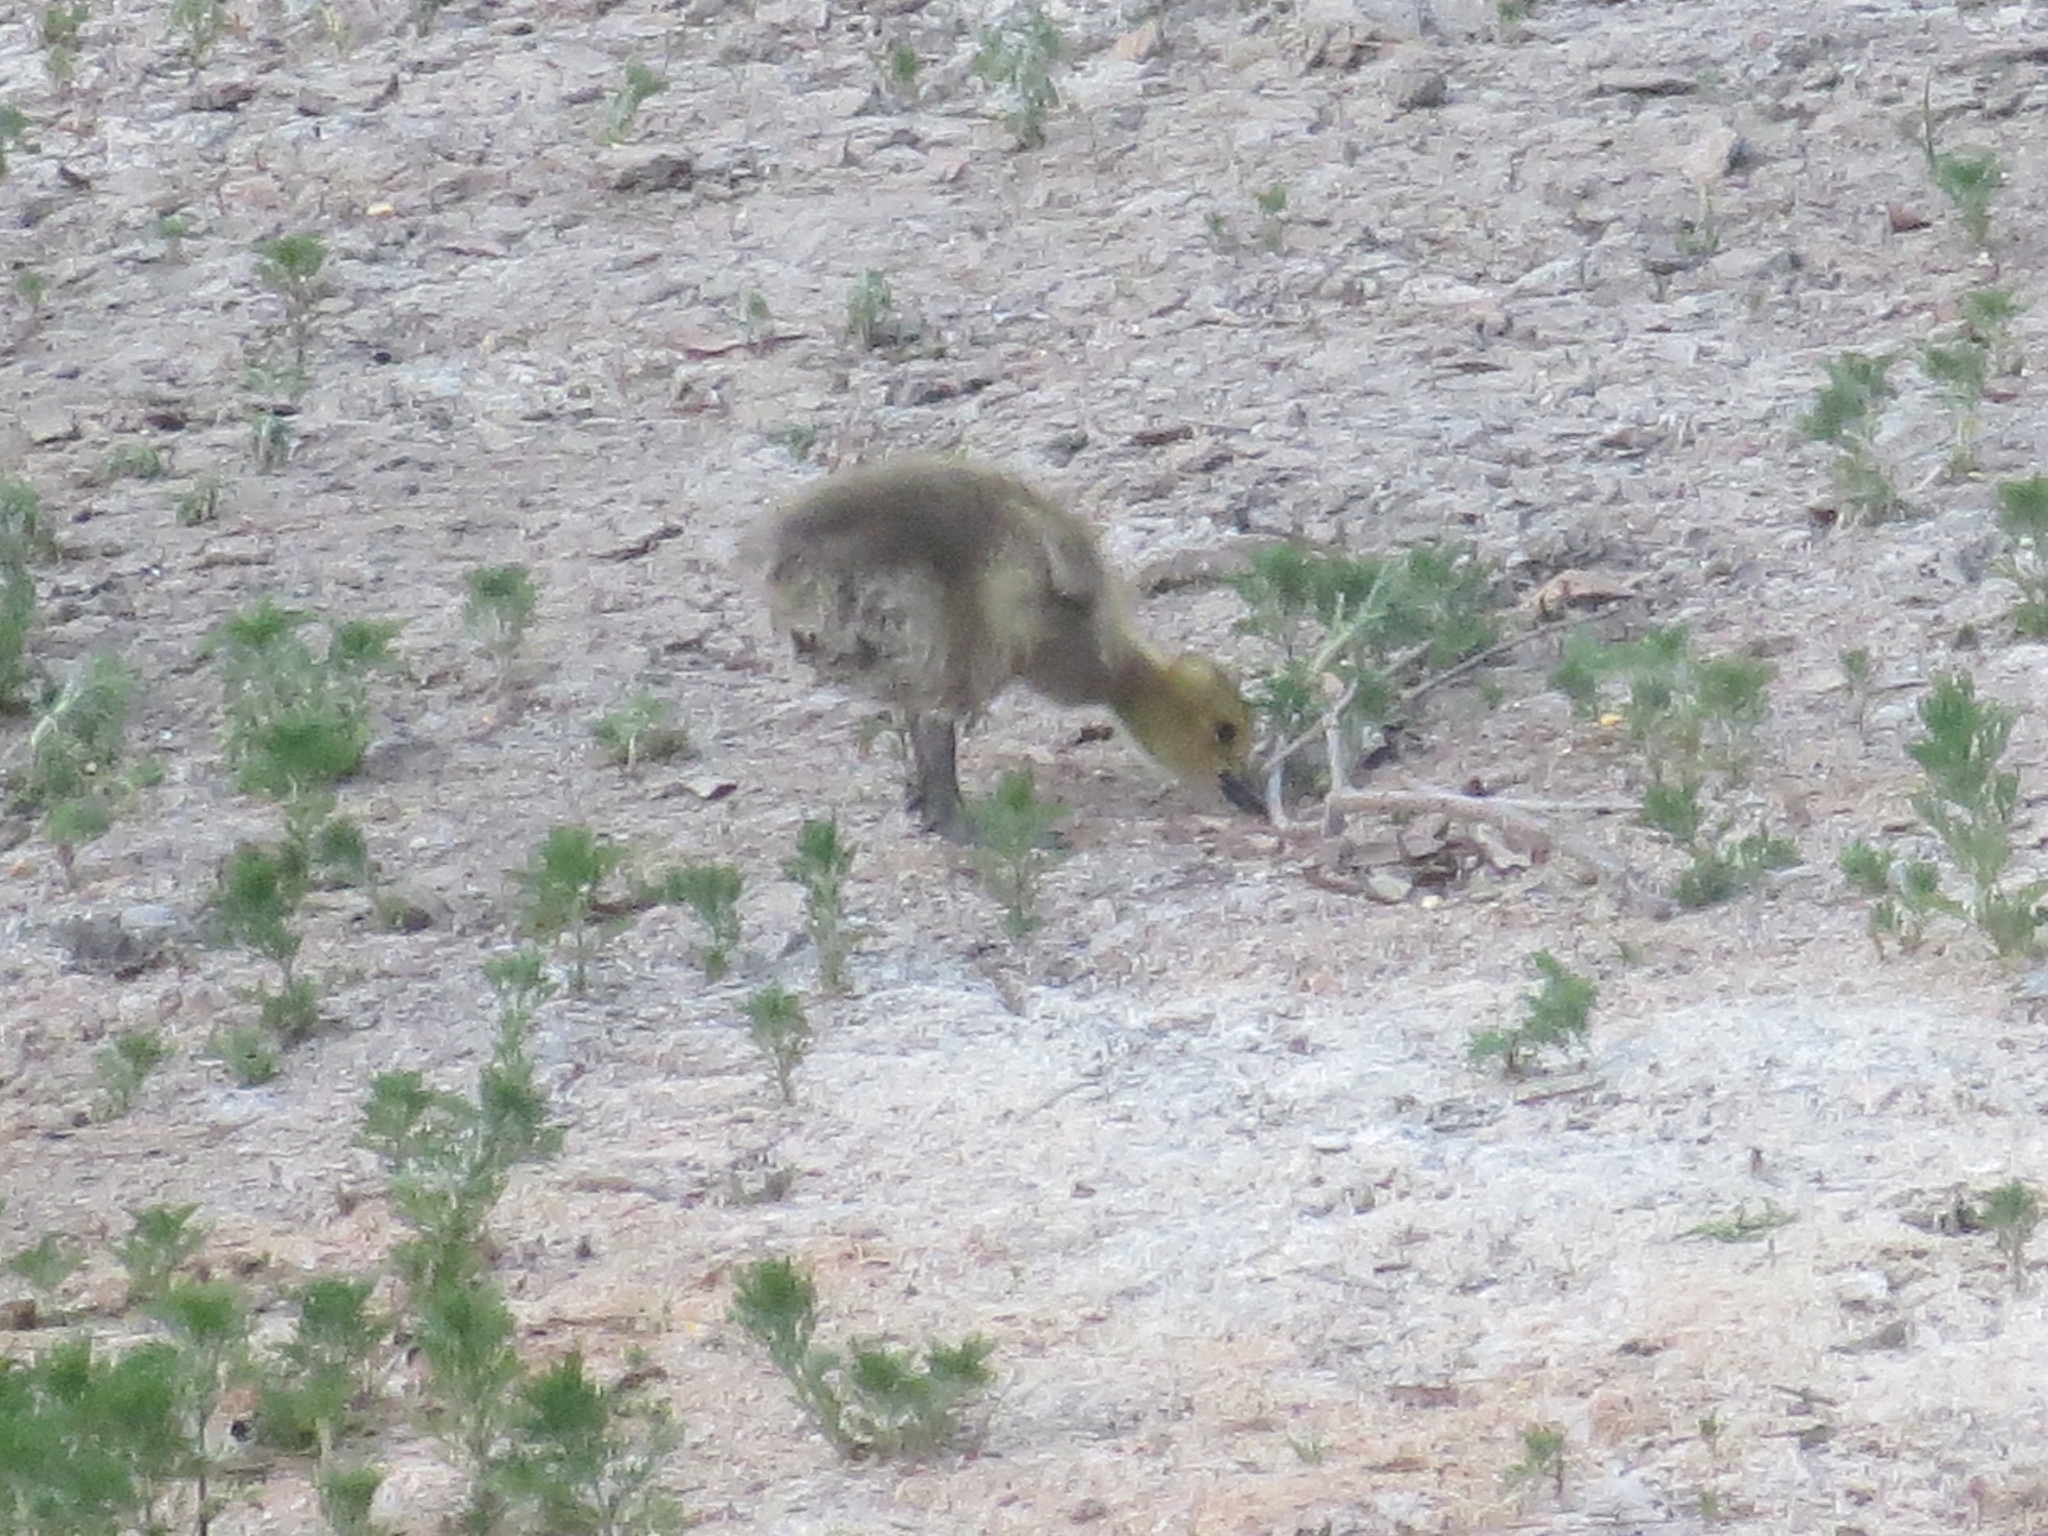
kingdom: Animalia
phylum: Chordata
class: Aves
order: Anseriformes
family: Anatidae
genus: Branta
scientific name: Branta canadensis
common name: Canada goose
